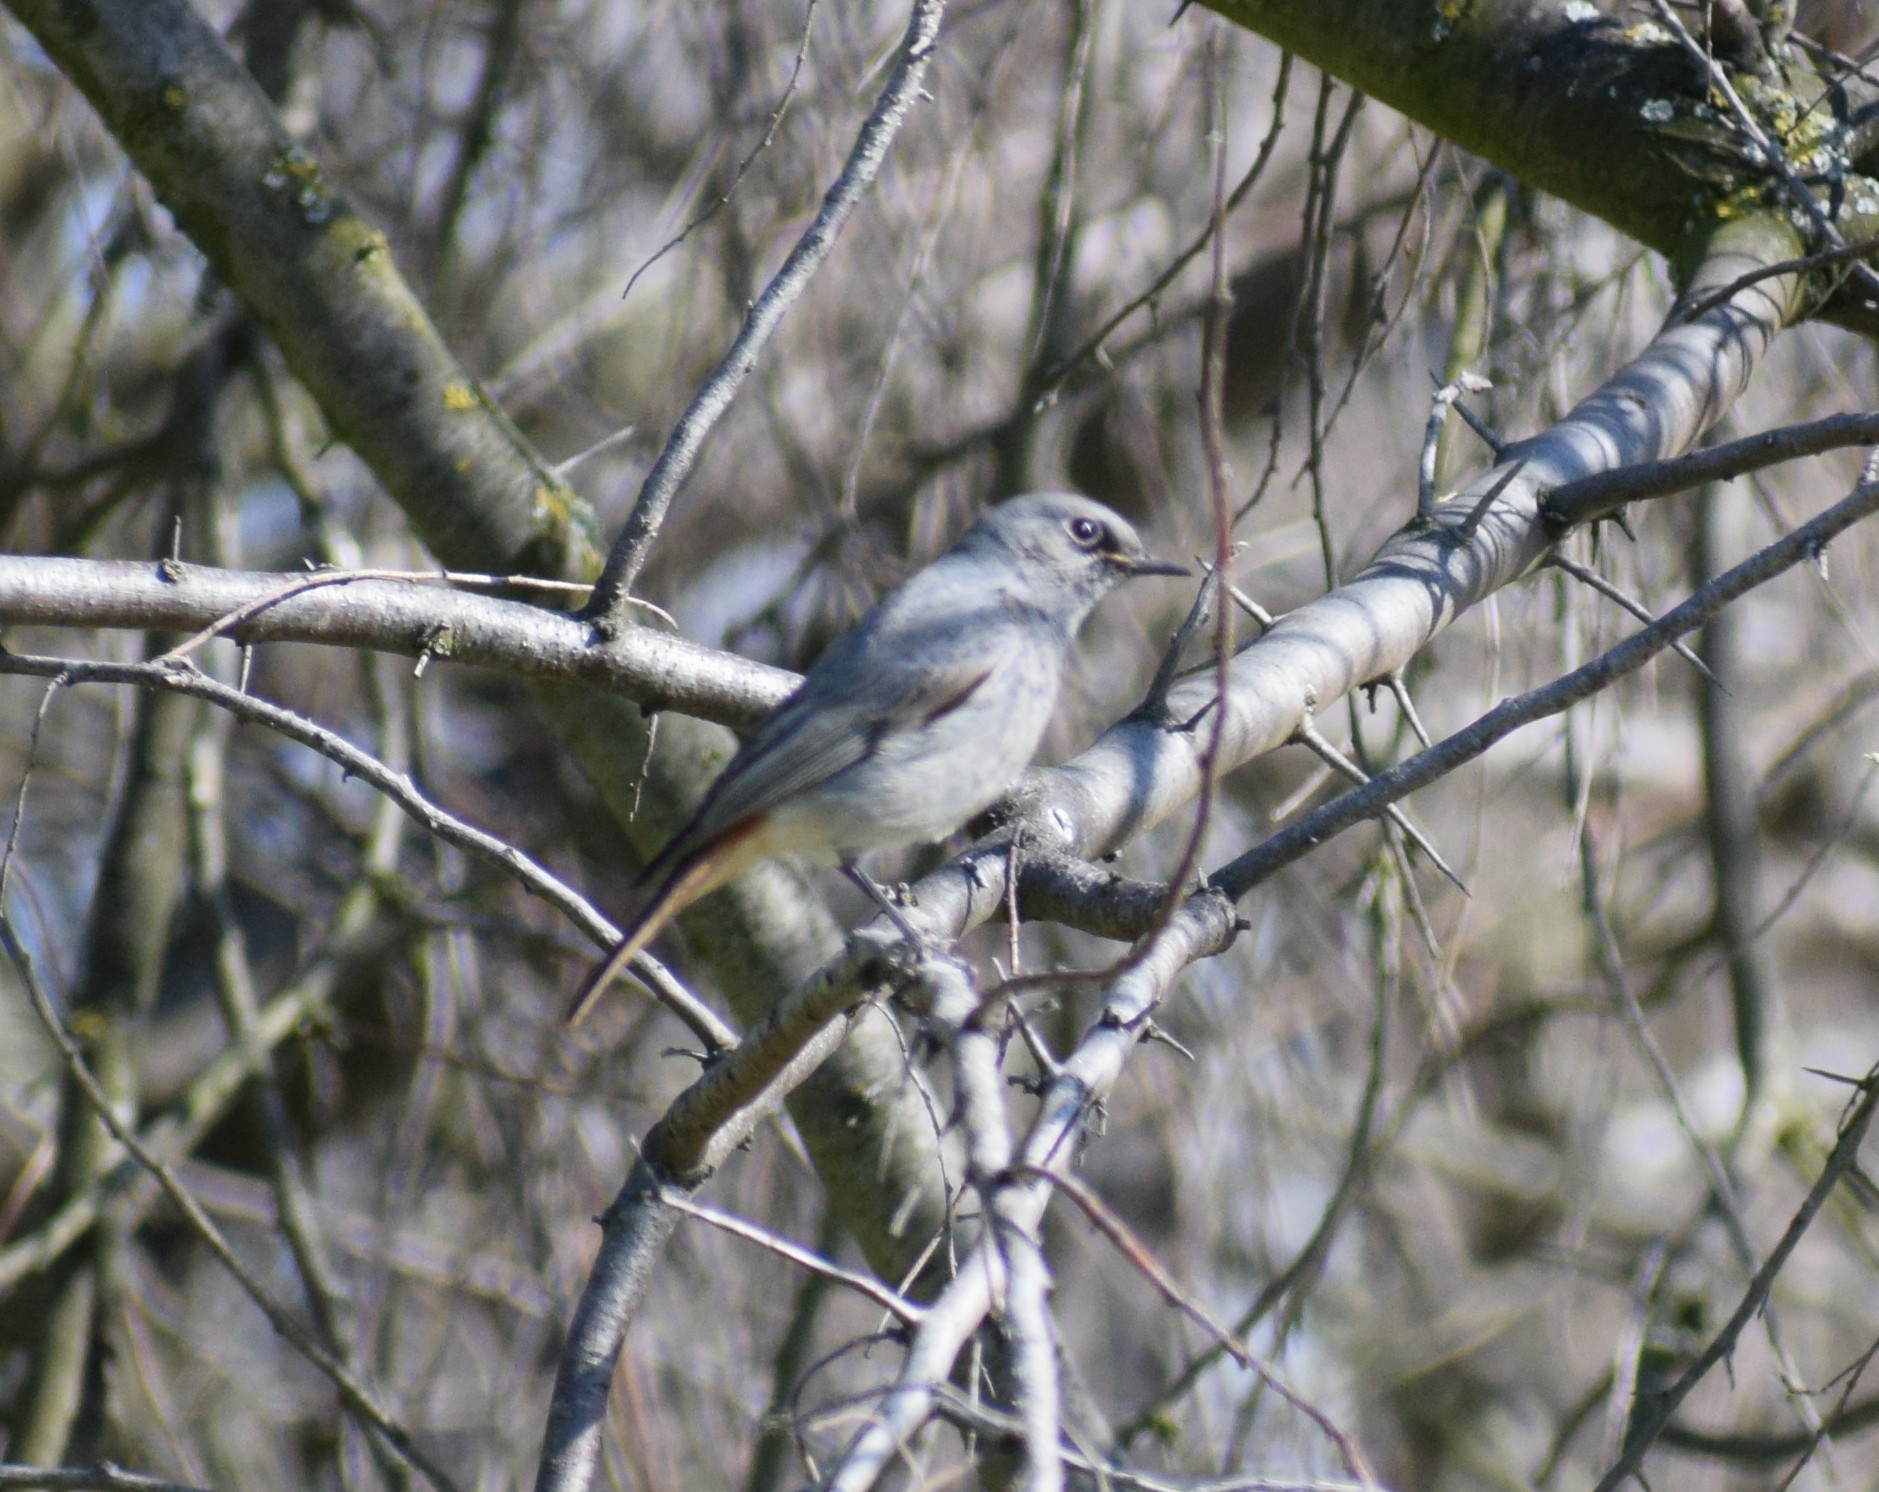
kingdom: Animalia
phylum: Chordata
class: Aves
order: Passeriformes
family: Muscicapidae
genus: Phoenicurus
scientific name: Phoenicurus ochruros
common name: Black redstart
